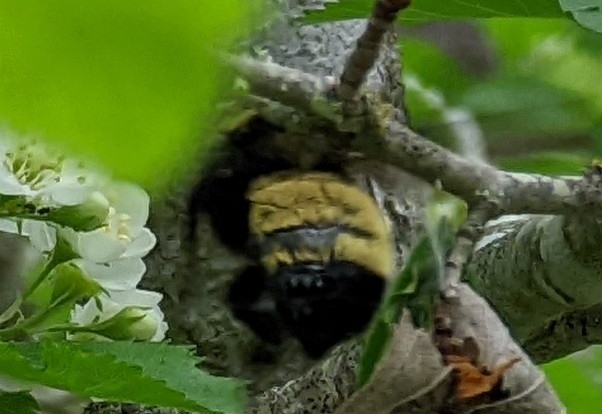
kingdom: Animalia
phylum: Arthropoda
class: Insecta
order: Hymenoptera
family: Apidae
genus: Bombus
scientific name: Bombus pensylvanicus
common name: Bumble bee
